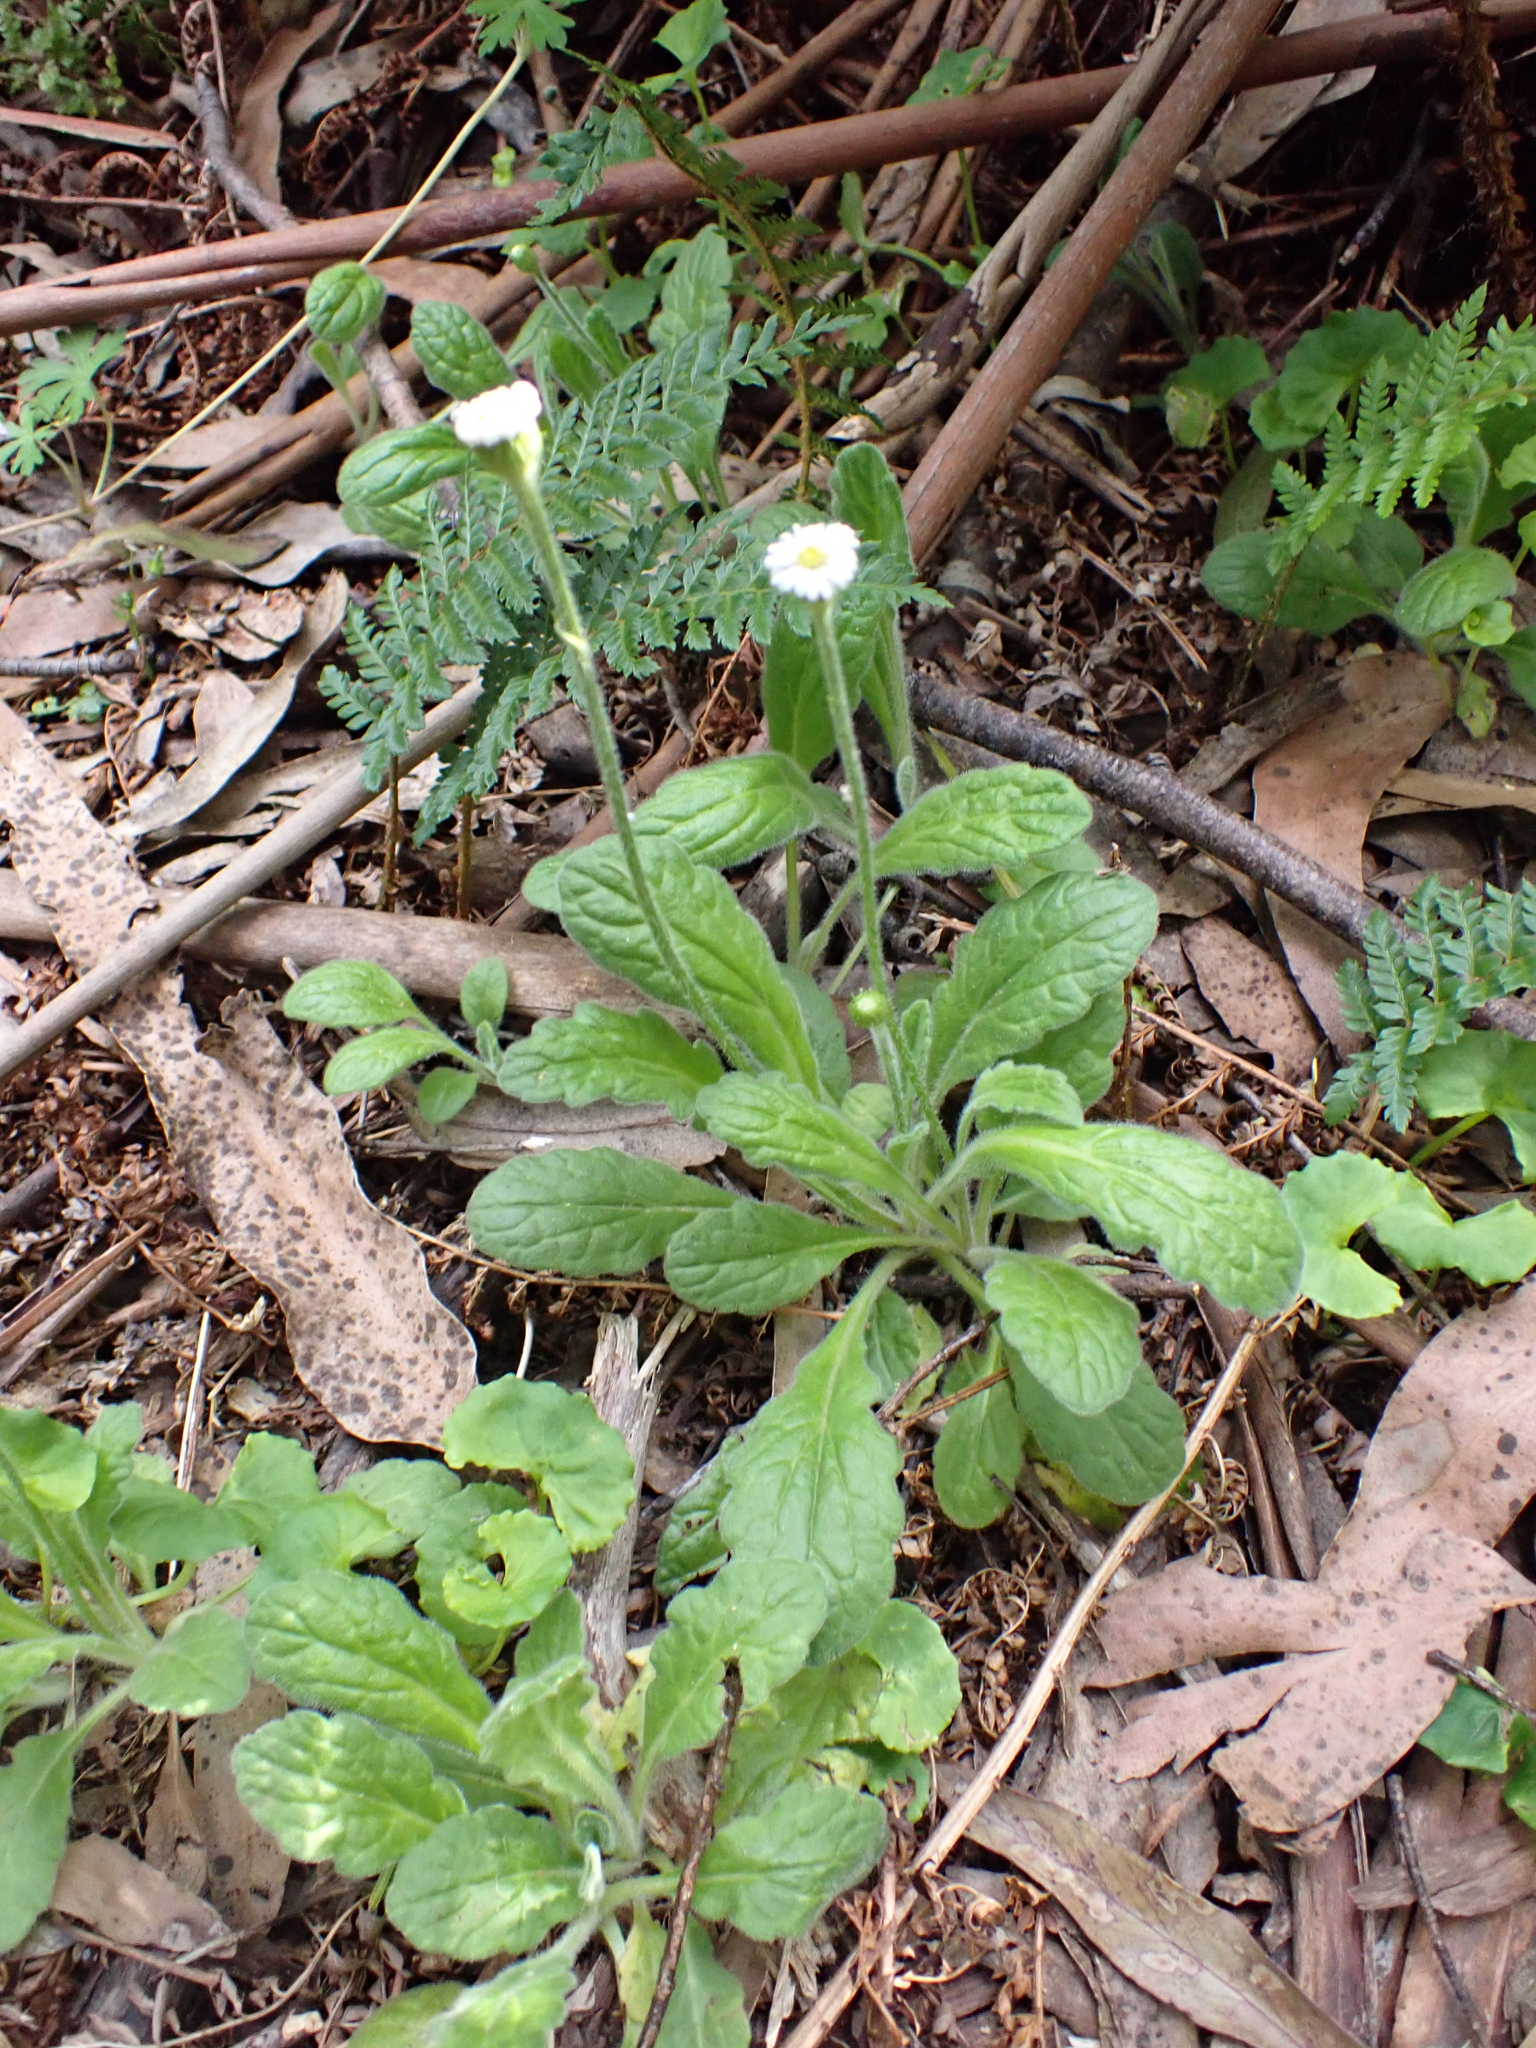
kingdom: Plantae
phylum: Tracheophyta
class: Magnoliopsida
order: Asterales
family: Asteraceae
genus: Lagenophora
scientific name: Lagenophora adenosa
